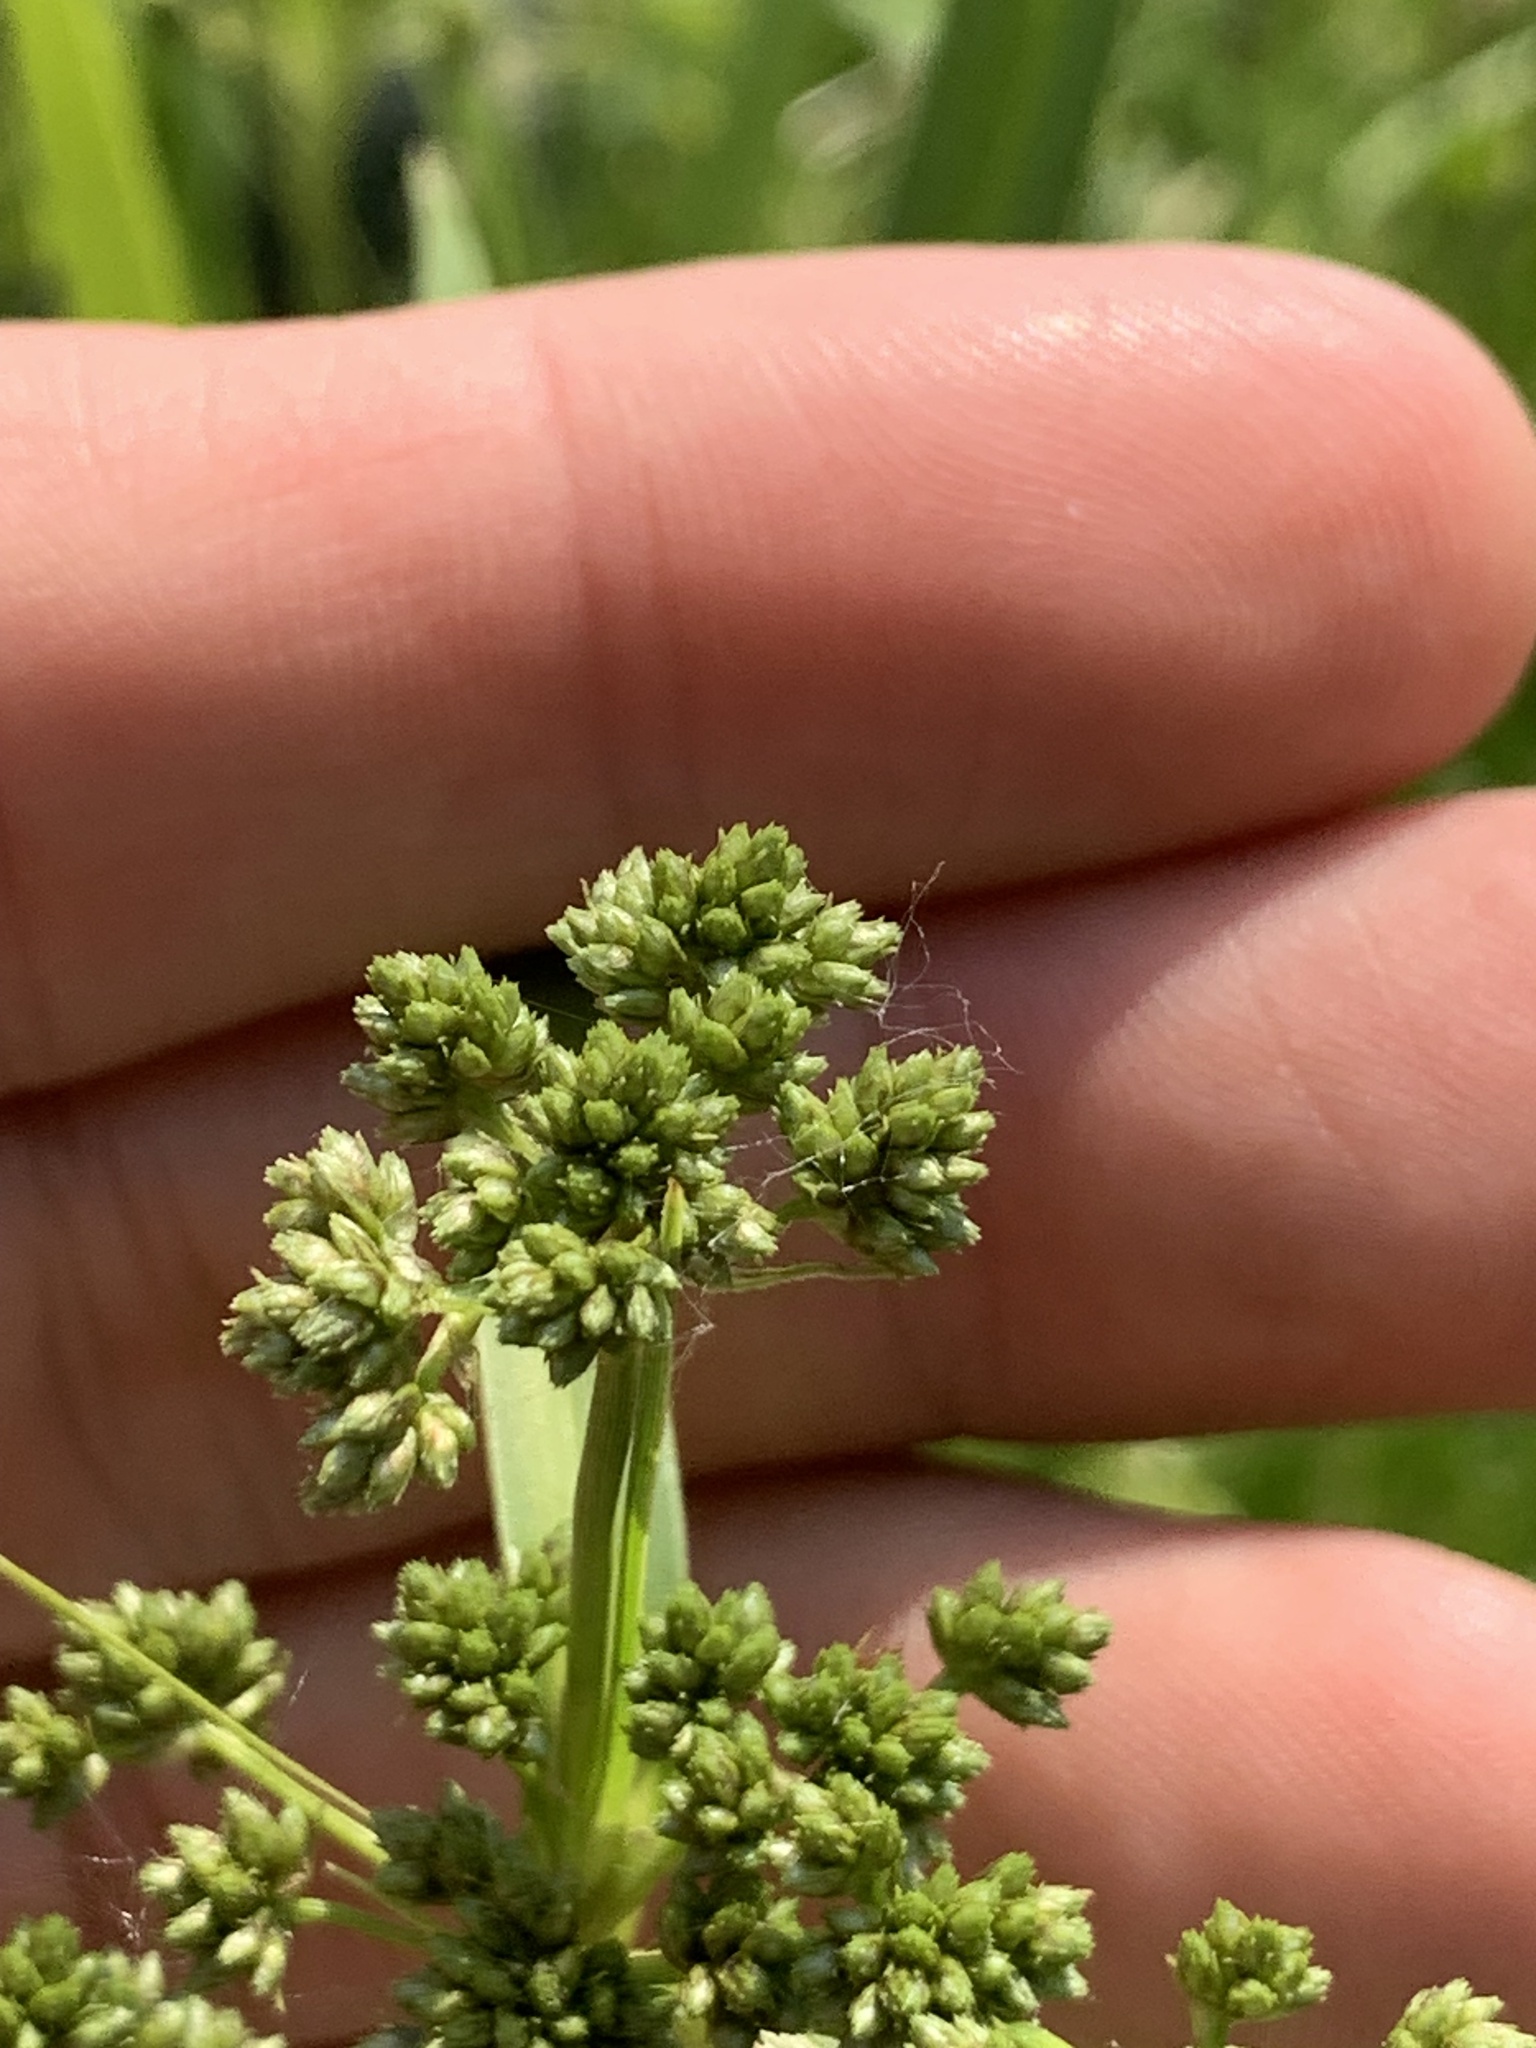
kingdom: Plantae
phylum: Tracheophyta
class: Liliopsida
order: Poales
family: Cyperaceae
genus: Scirpus
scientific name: Scirpus hattorianus
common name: Early dark-green bulrush
